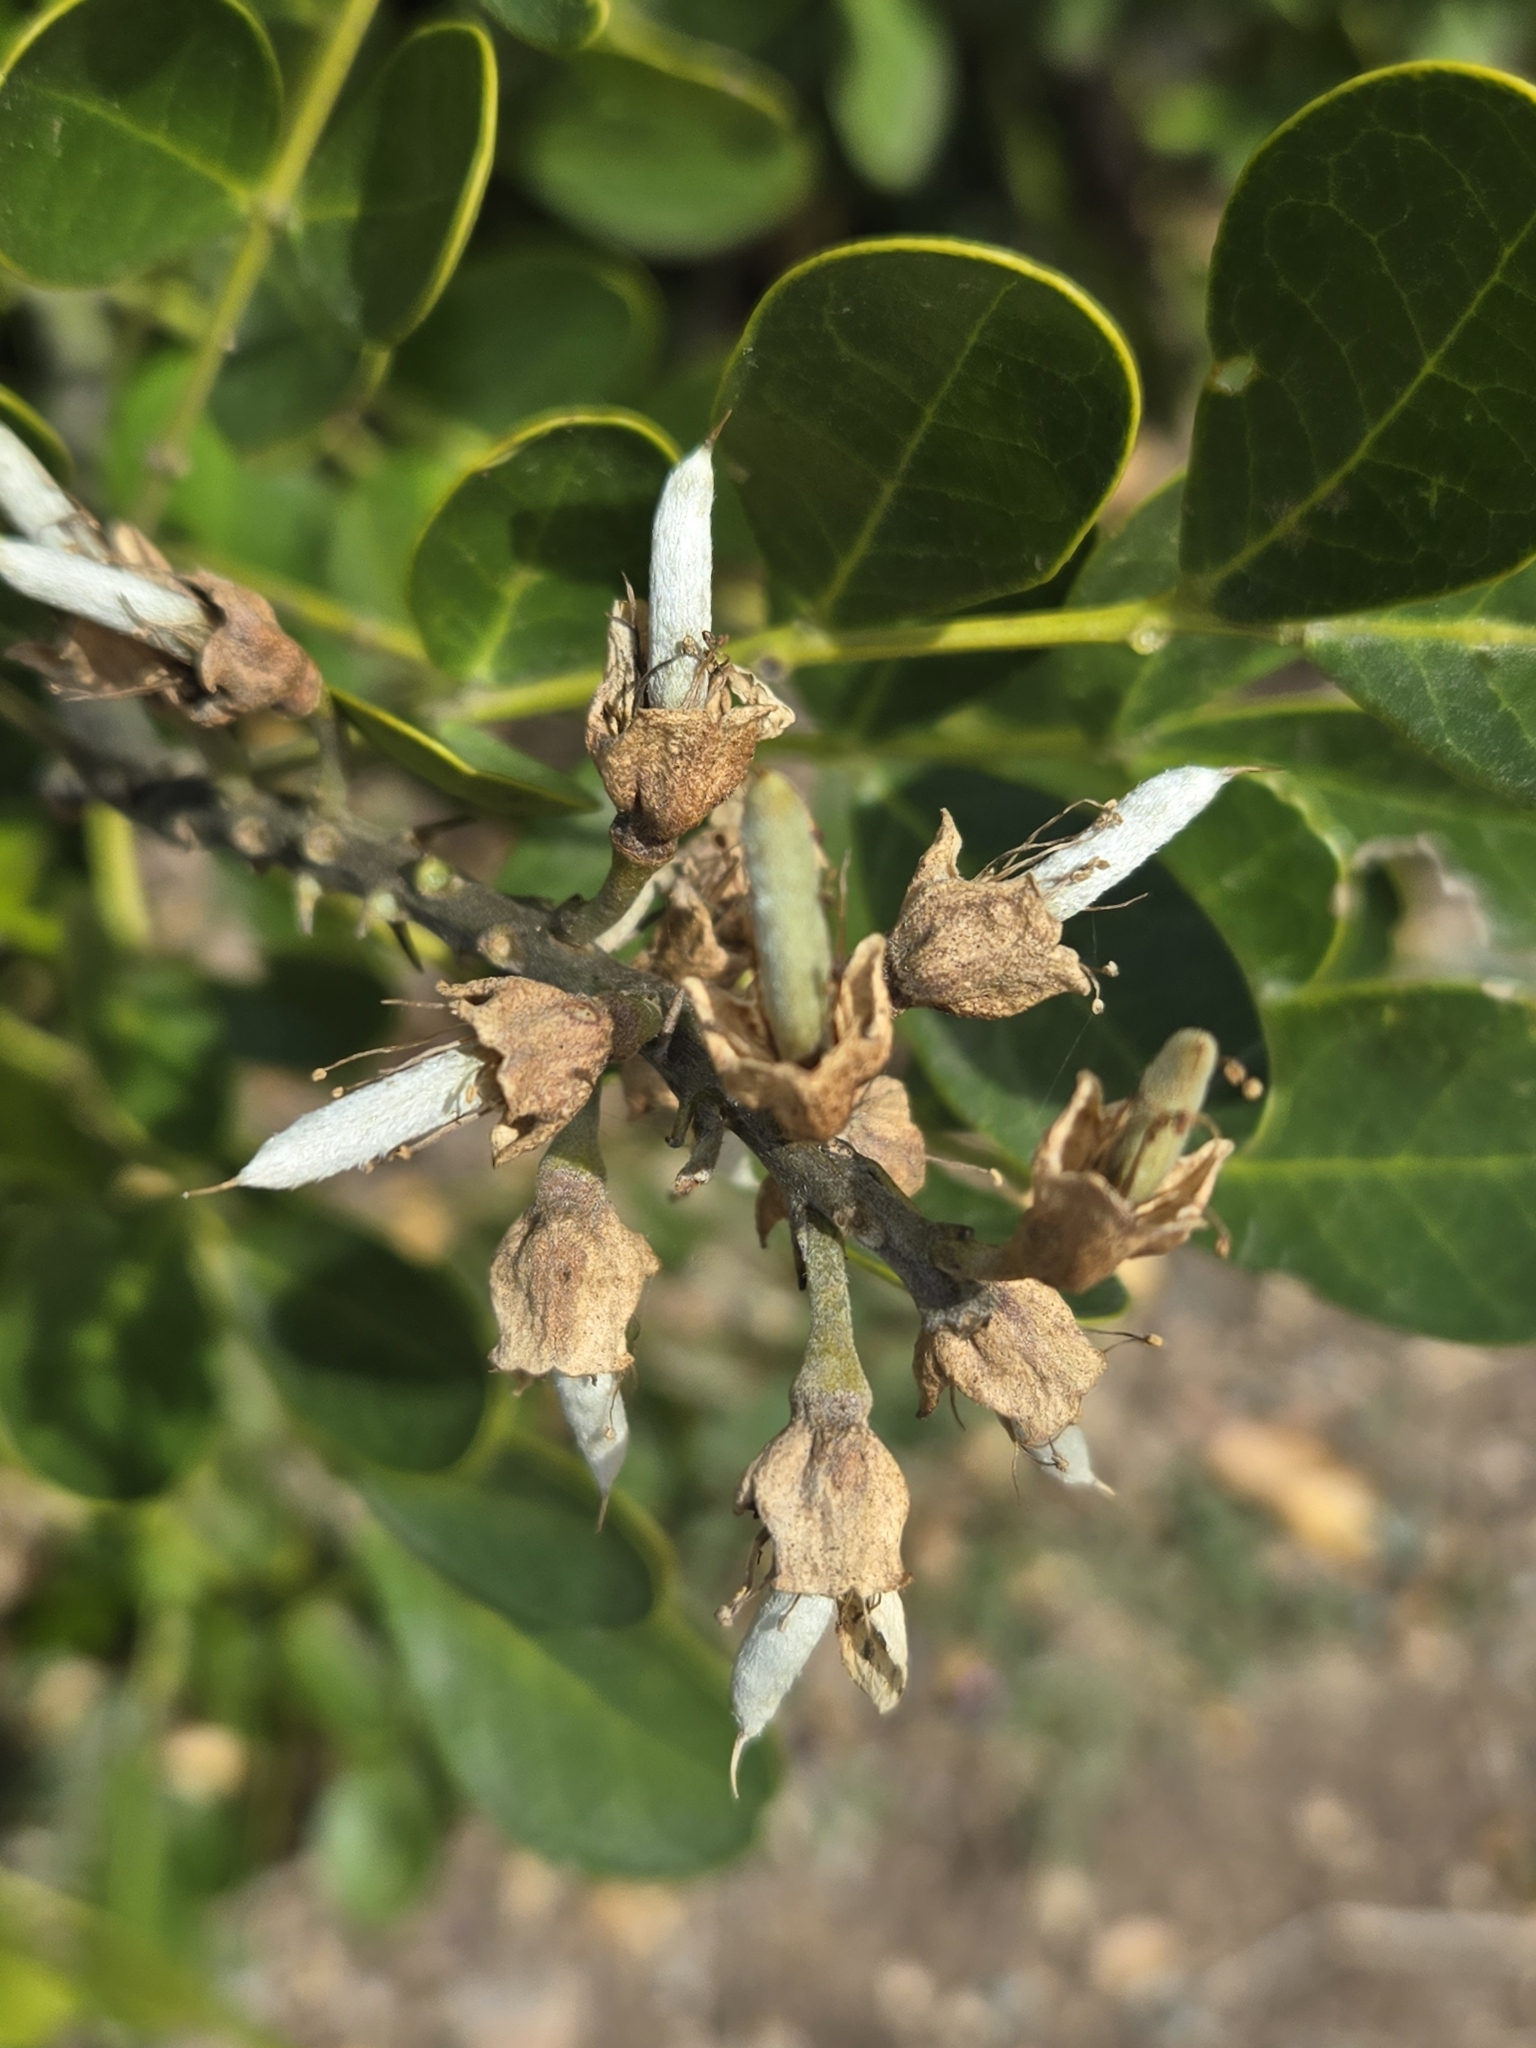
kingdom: Plantae
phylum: Tracheophyta
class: Magnoliopsida
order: Fabales
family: Fabaceae
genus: Dermatophyllum
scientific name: Dermatophyllum secundiflorum
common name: Texas-mountain-laurel
